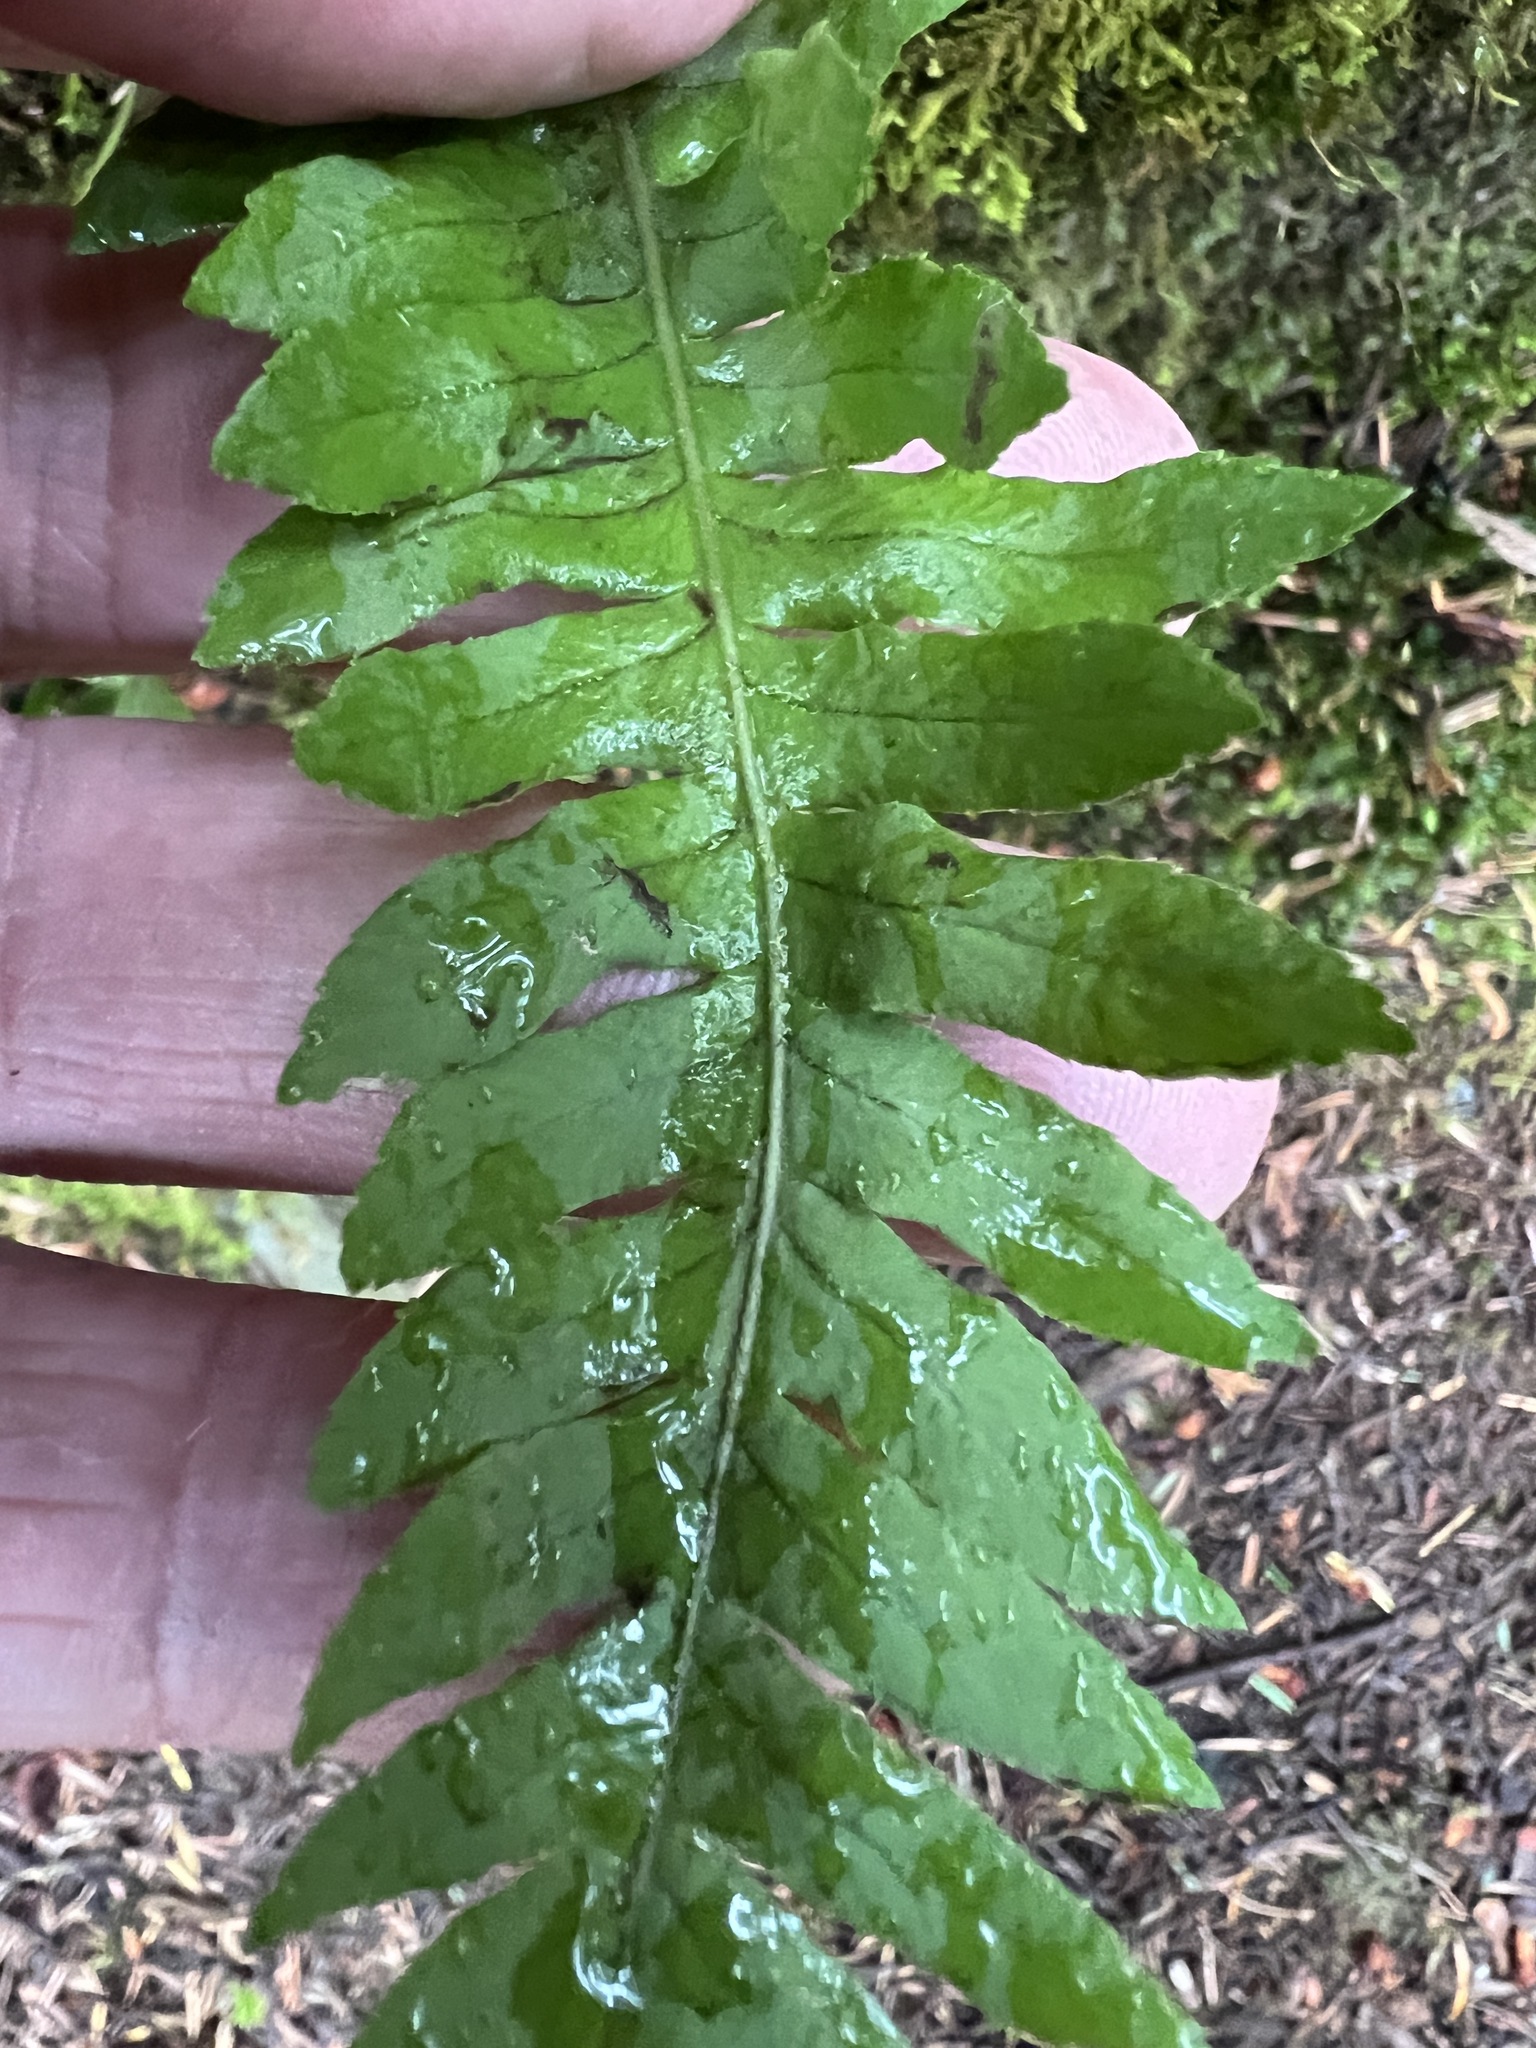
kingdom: Plantae
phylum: Tracheophyta
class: Polypodiopsida
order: Polypodiales
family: Polypodiaceae
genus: Polypodium
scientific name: Polypodium glycyrrhiza
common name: Licorice fern
